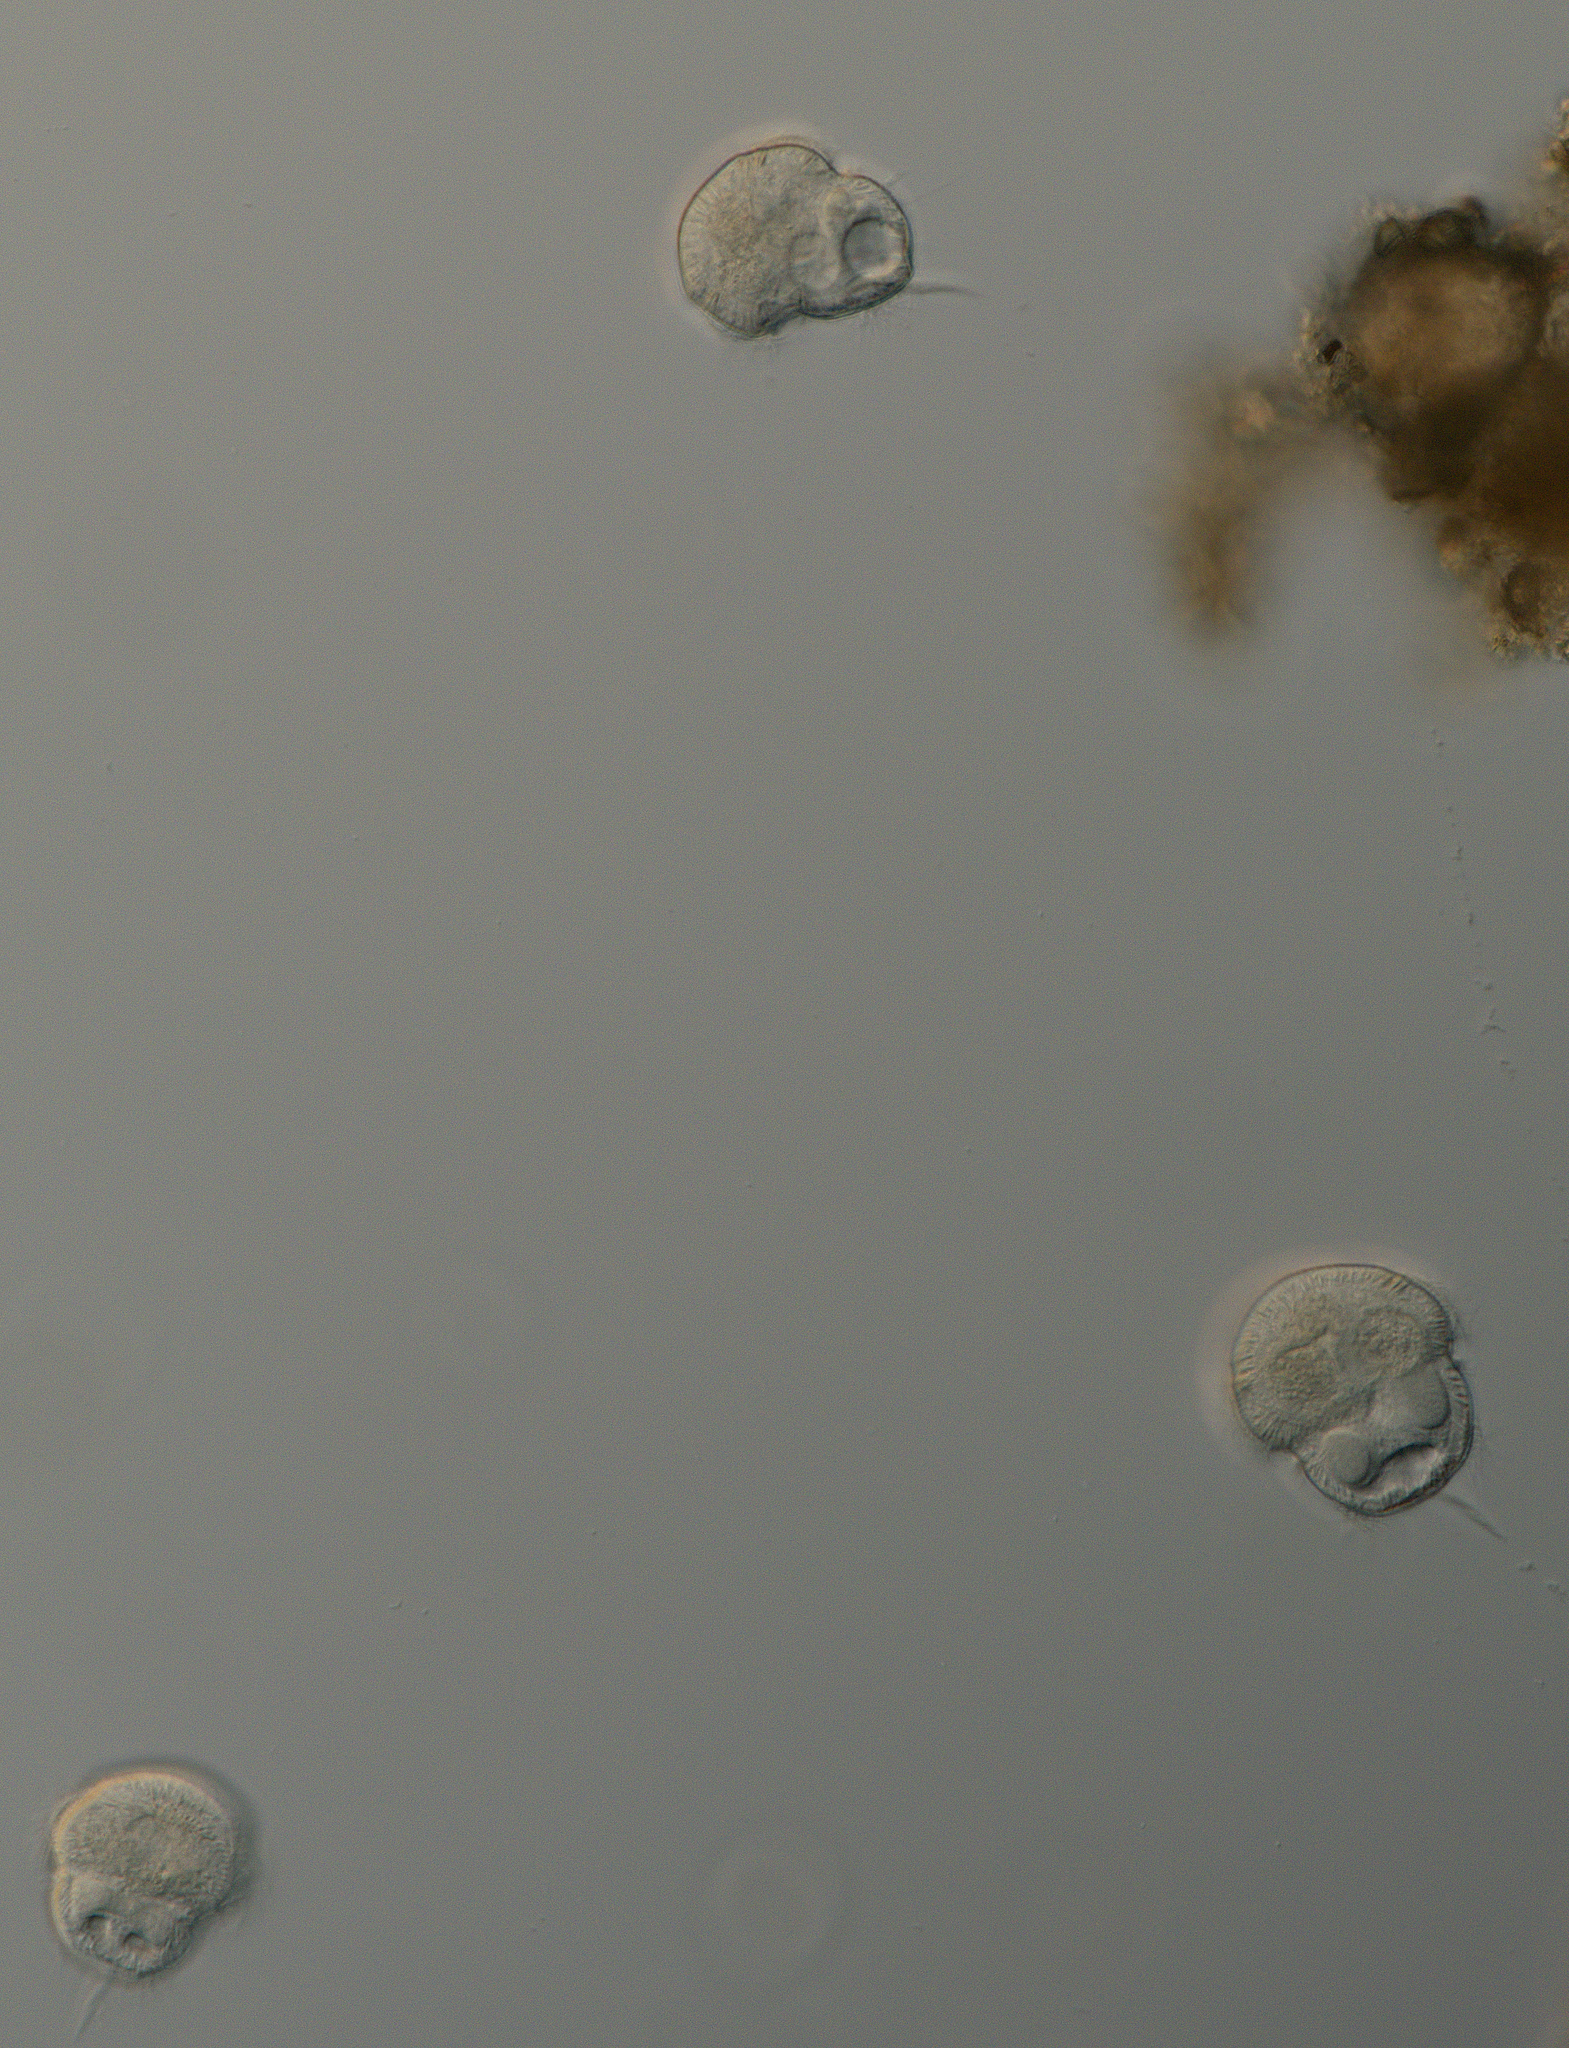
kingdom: Chromista
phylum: Ciliophora
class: Oligohymenophorea
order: Hymenostomatida
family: Urocentridae
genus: Urocentrum
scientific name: Urocentrum turbo
